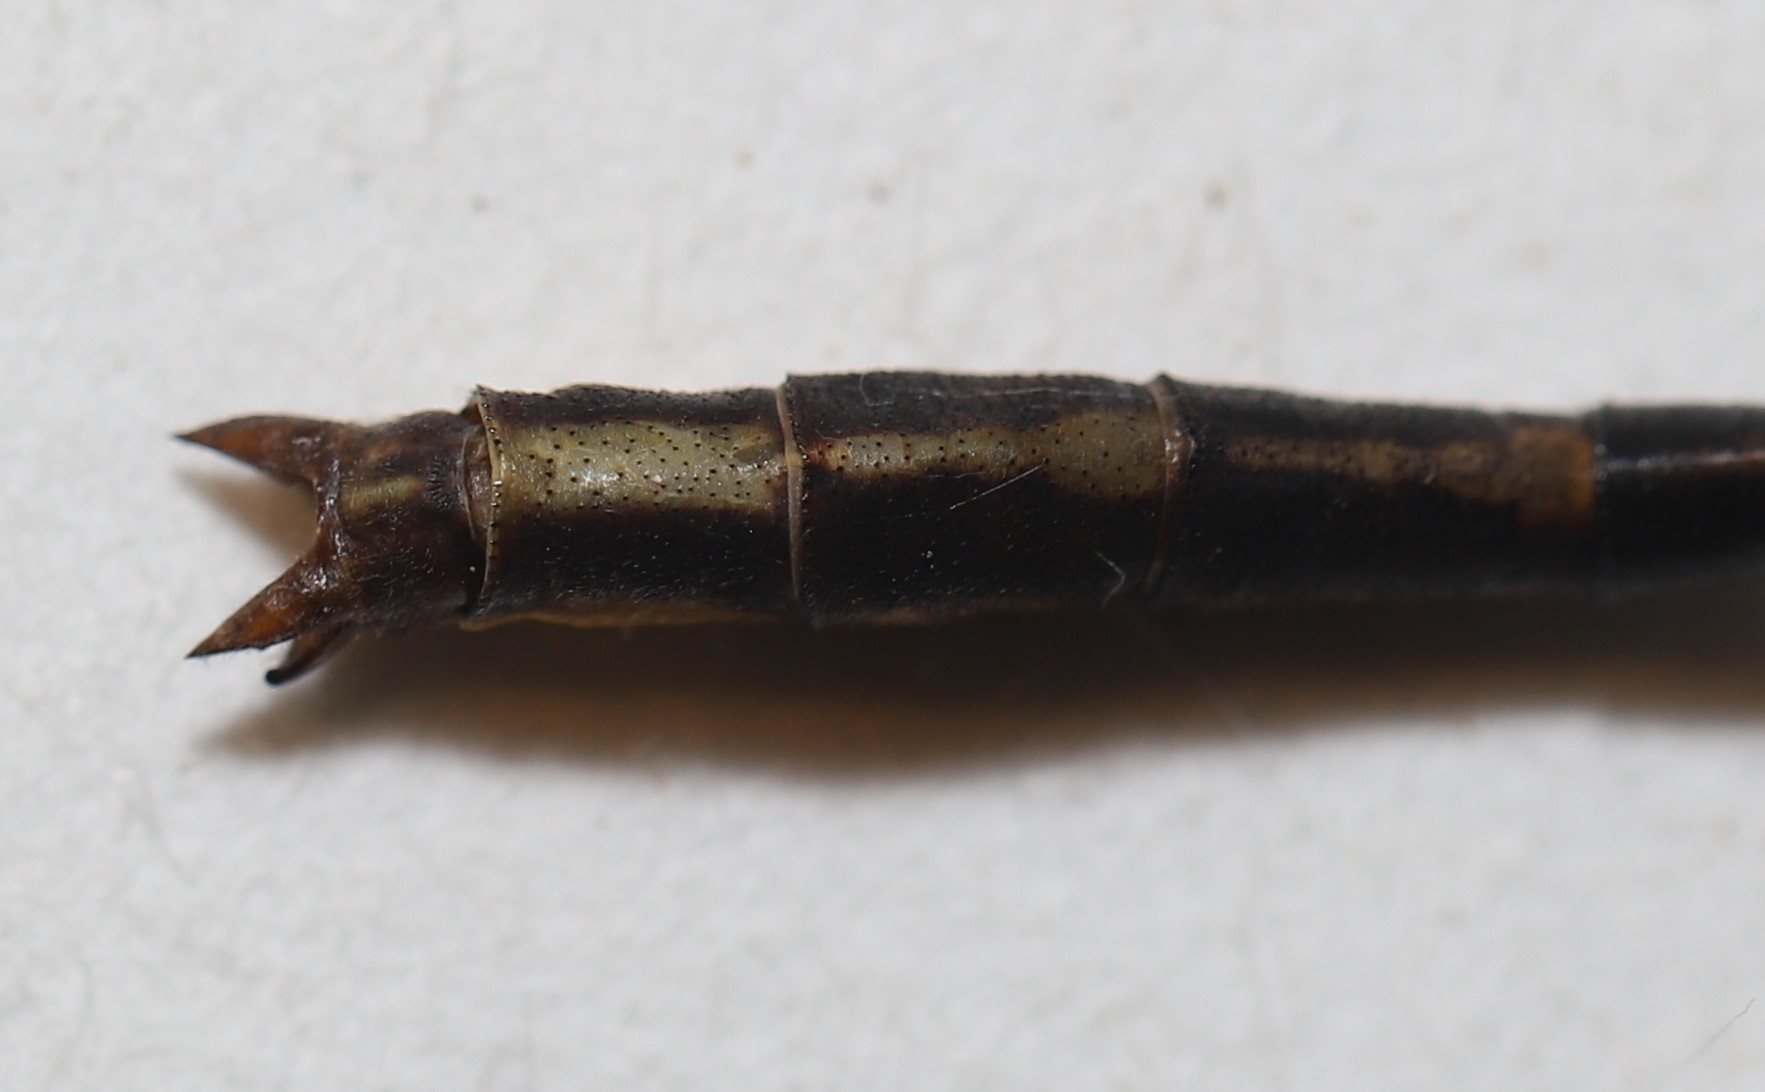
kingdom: Animalia
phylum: Arthropoda
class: Insecta
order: Odonata
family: Gomphidae
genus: Phanogomphus
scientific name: Phanogomphus exilis
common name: Lancet clubtail
